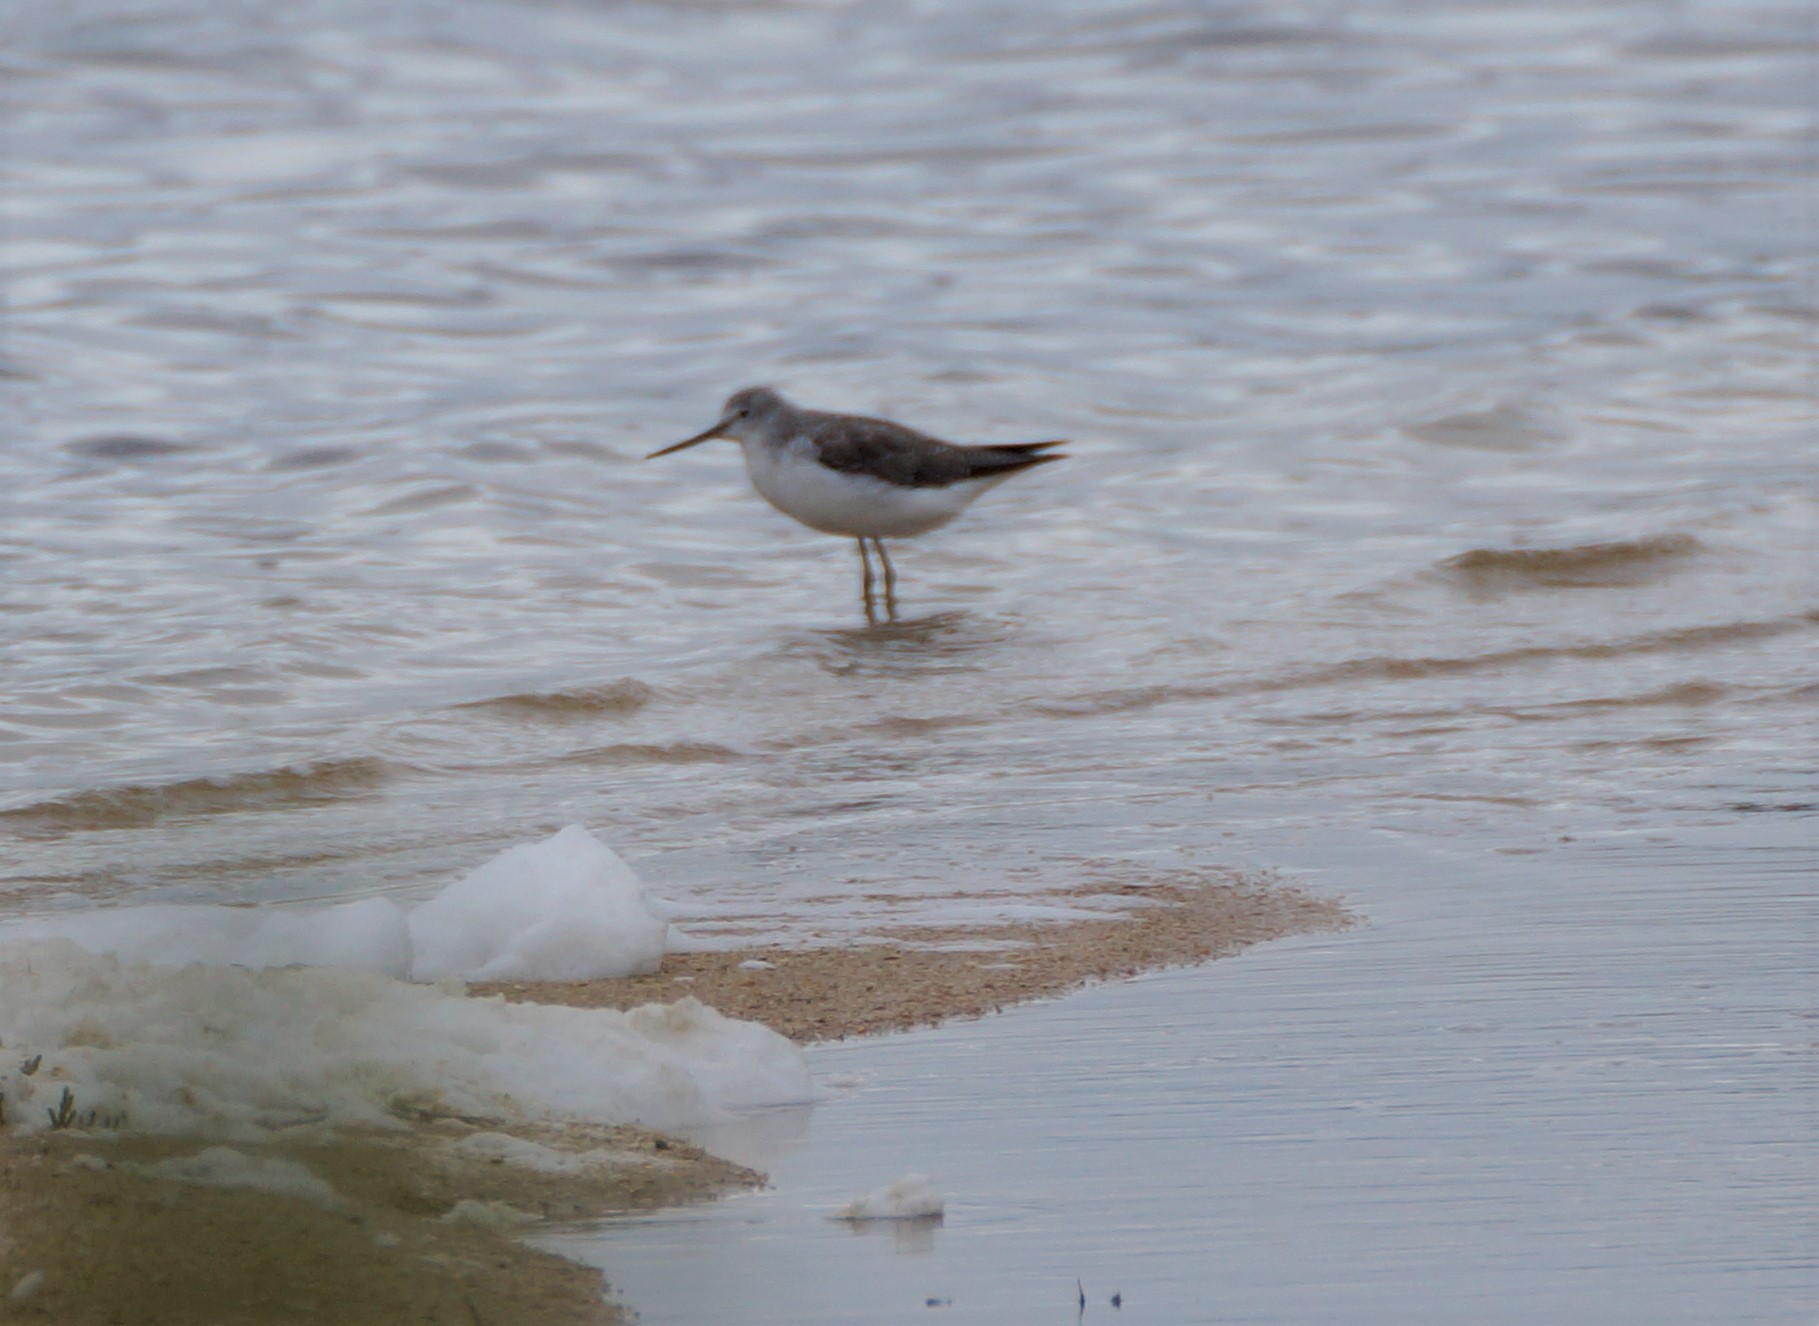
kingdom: Animalia
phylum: Chordata
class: Aves
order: Charadriiformes
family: Scolopacidae
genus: Tringa
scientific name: Tringa nebularia
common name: Common greenshank
